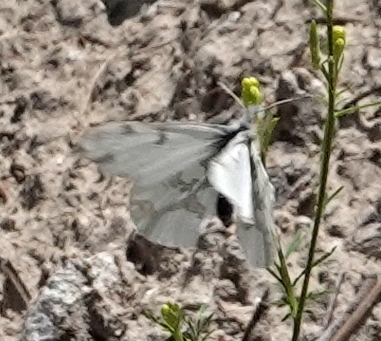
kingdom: Animalia
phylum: Arthropoda
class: Insecta
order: Lepidoptera
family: Pieridae
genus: Euchloe
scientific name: Euchloe olympia
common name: Olympia
